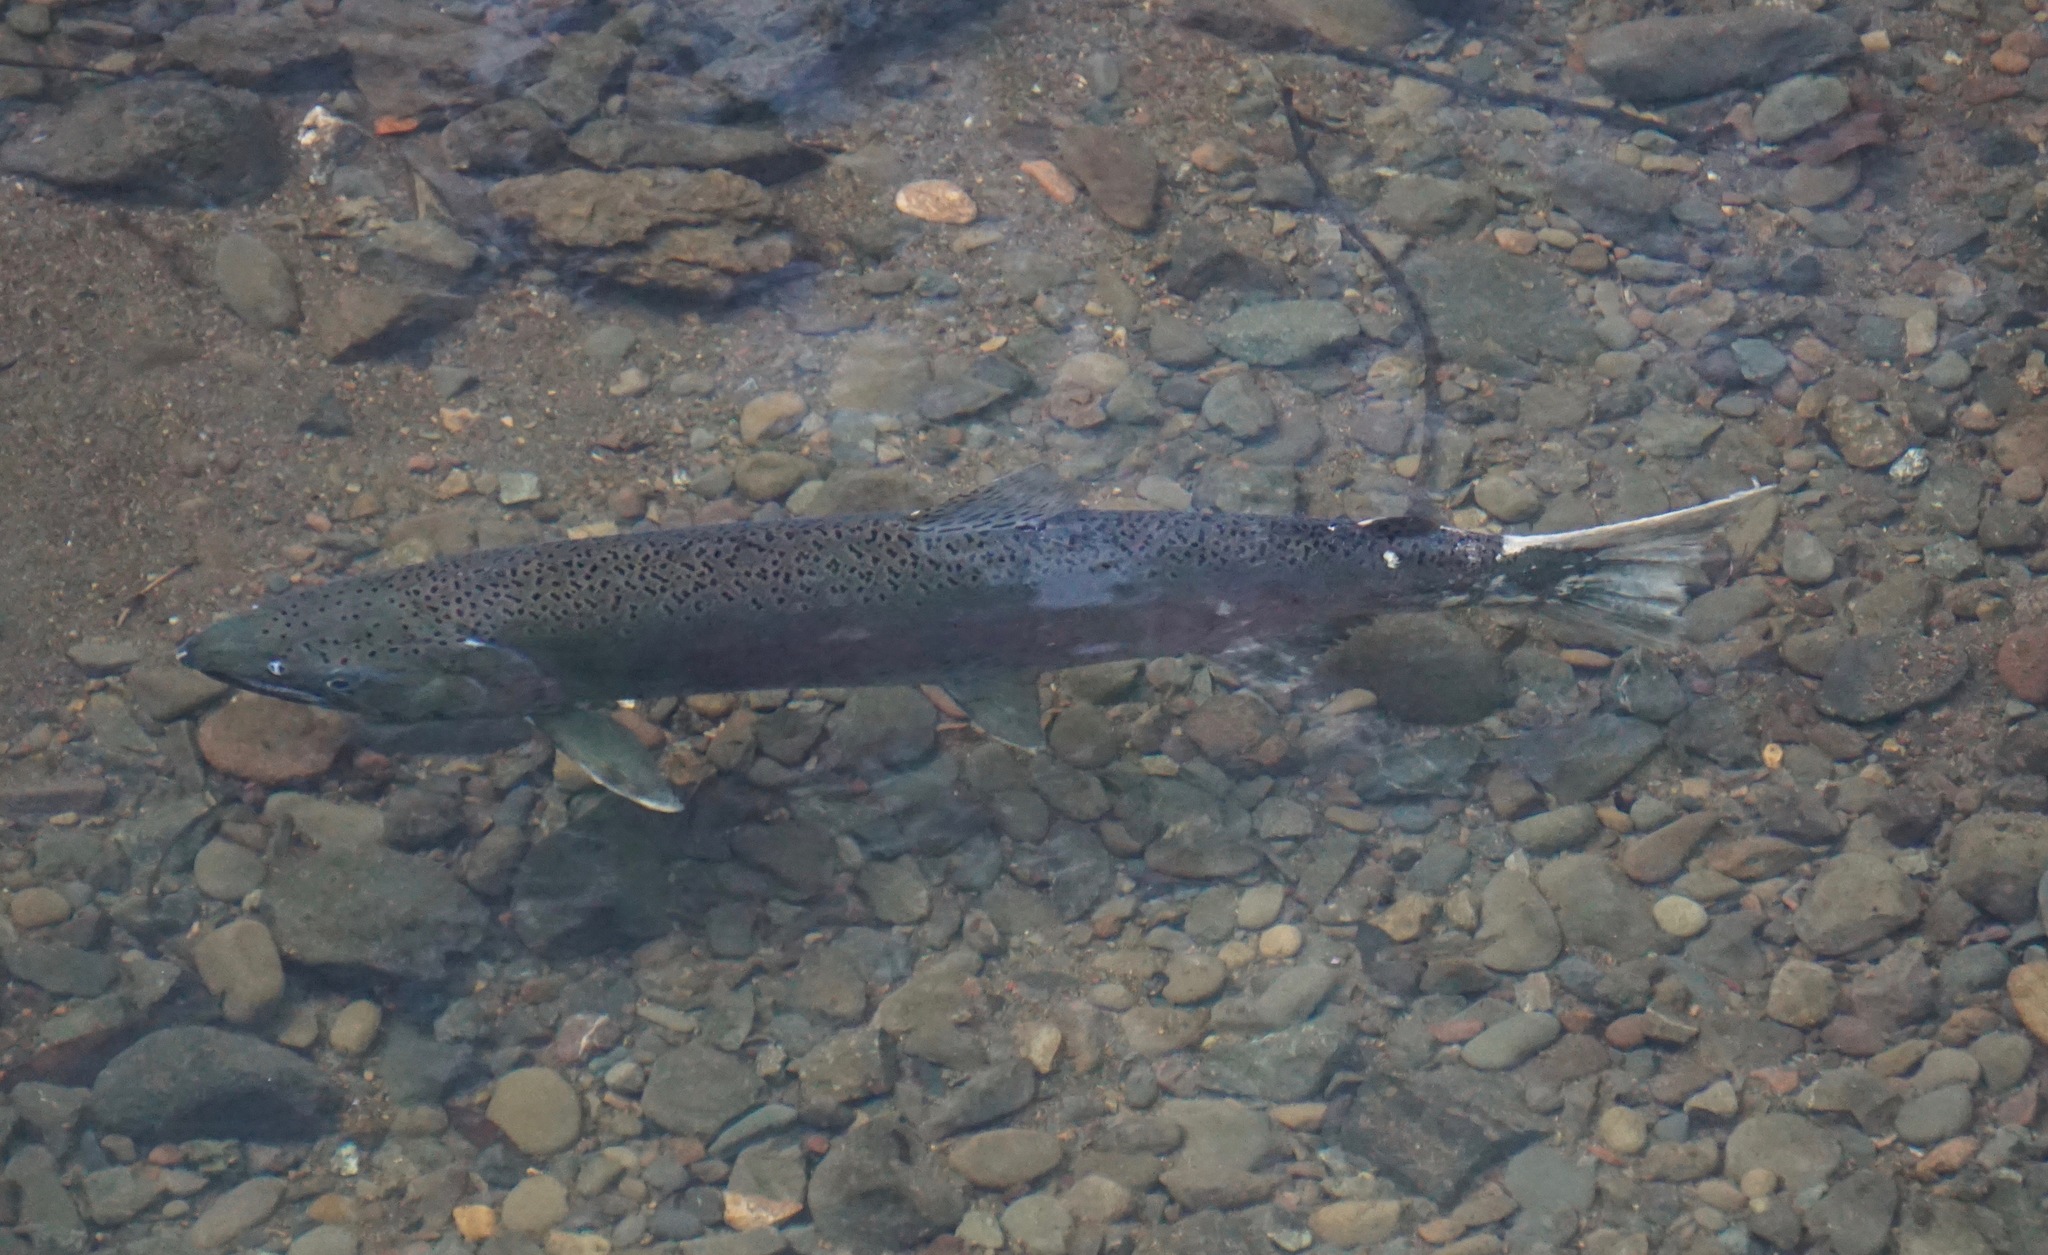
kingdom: Animalia
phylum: Chordata
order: Salmoniformes
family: Salmonidae
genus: Oncorhynchus
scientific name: Oncorhynchus kisutch
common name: Coho salmon
